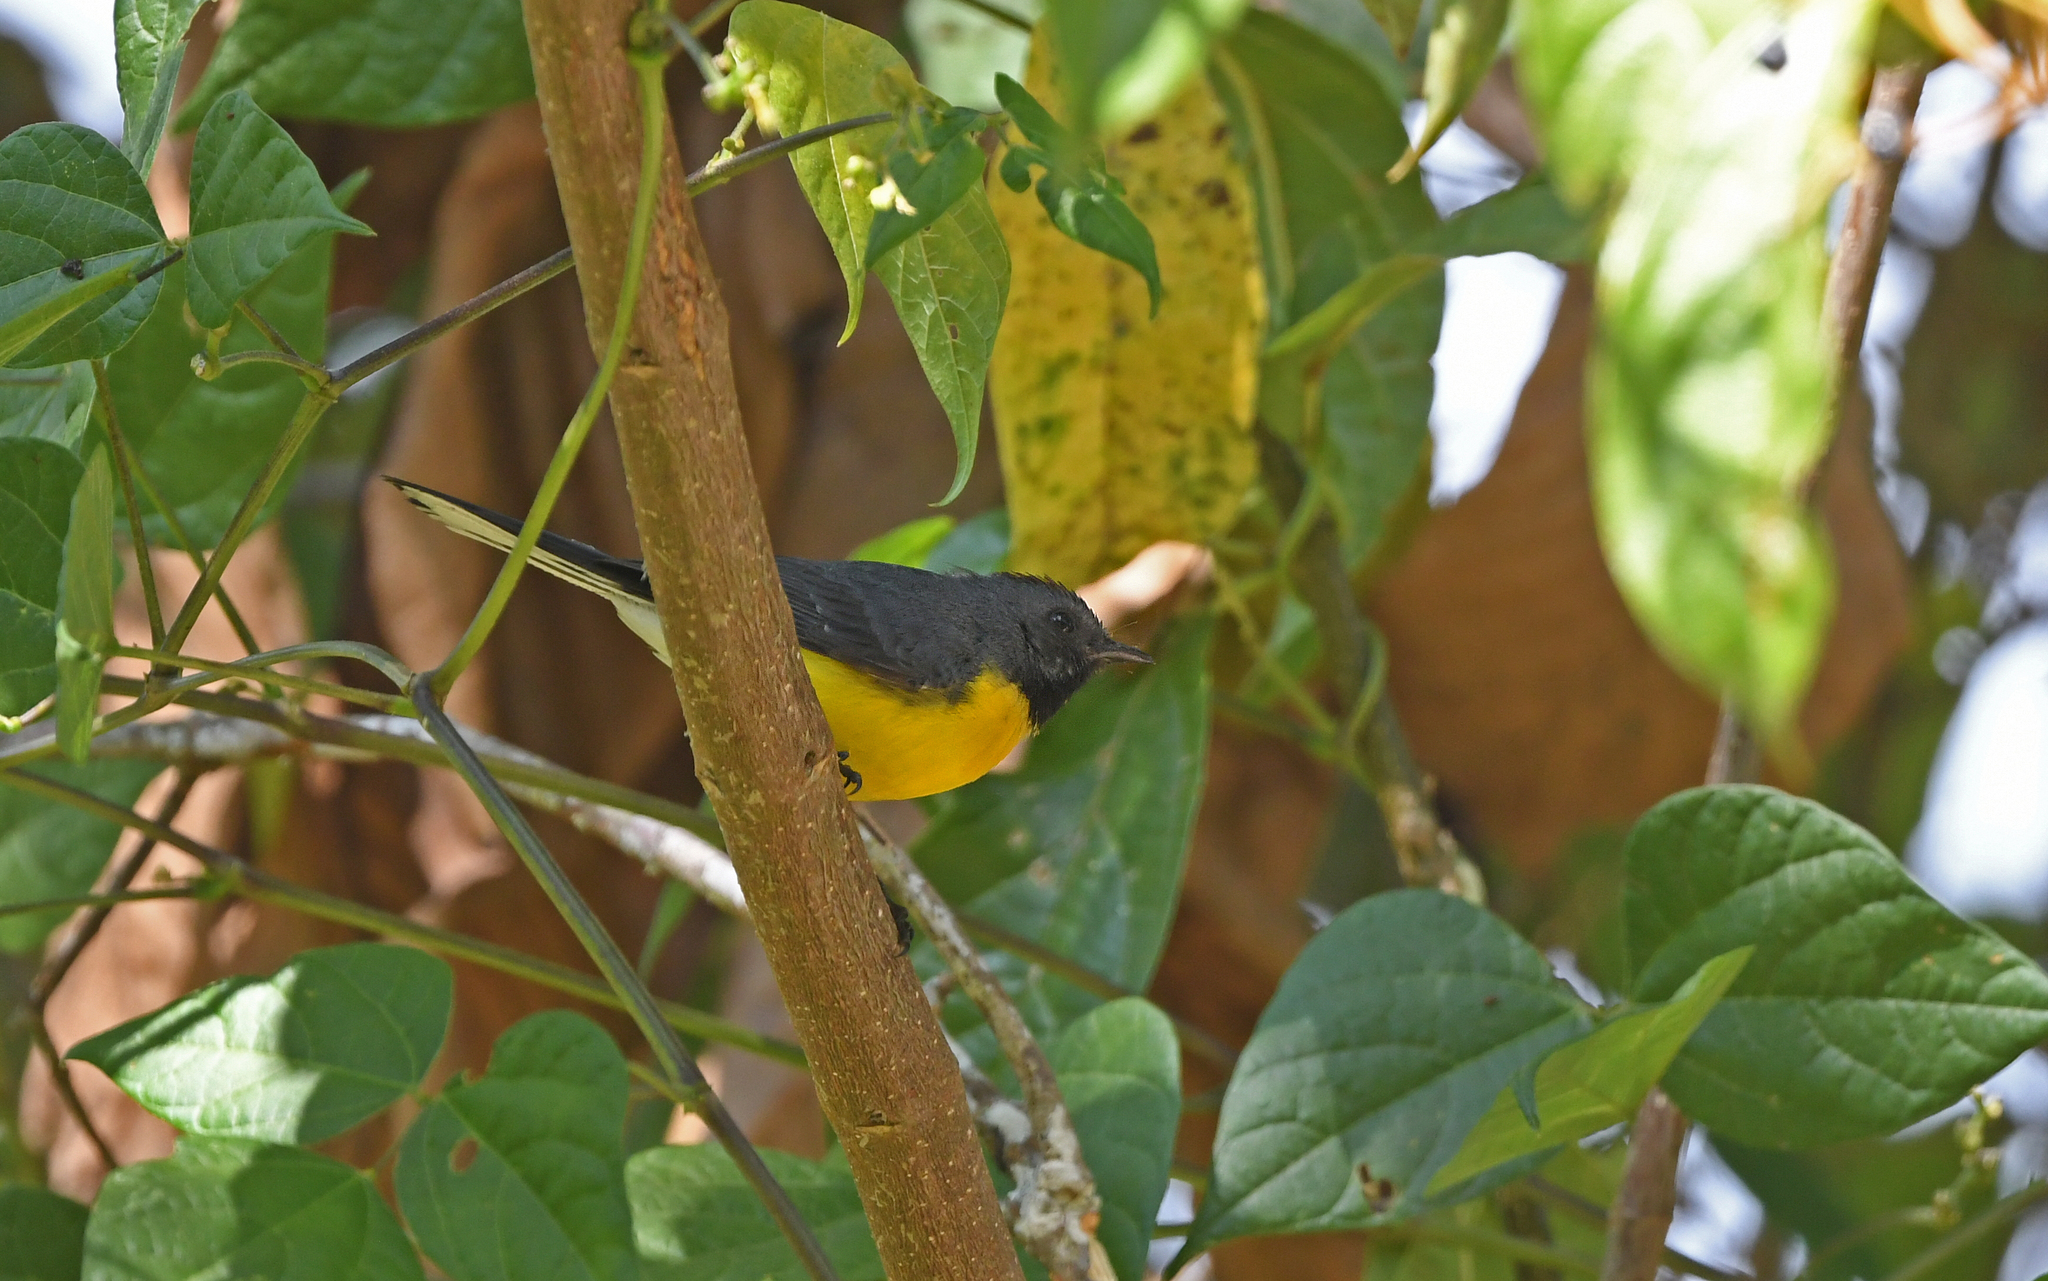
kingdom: Animalia
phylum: Chordata
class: Aves
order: Passeriformes
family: Parulidae
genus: Myioborus
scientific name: Myioborus miniatus
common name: Slate-throated redstart
